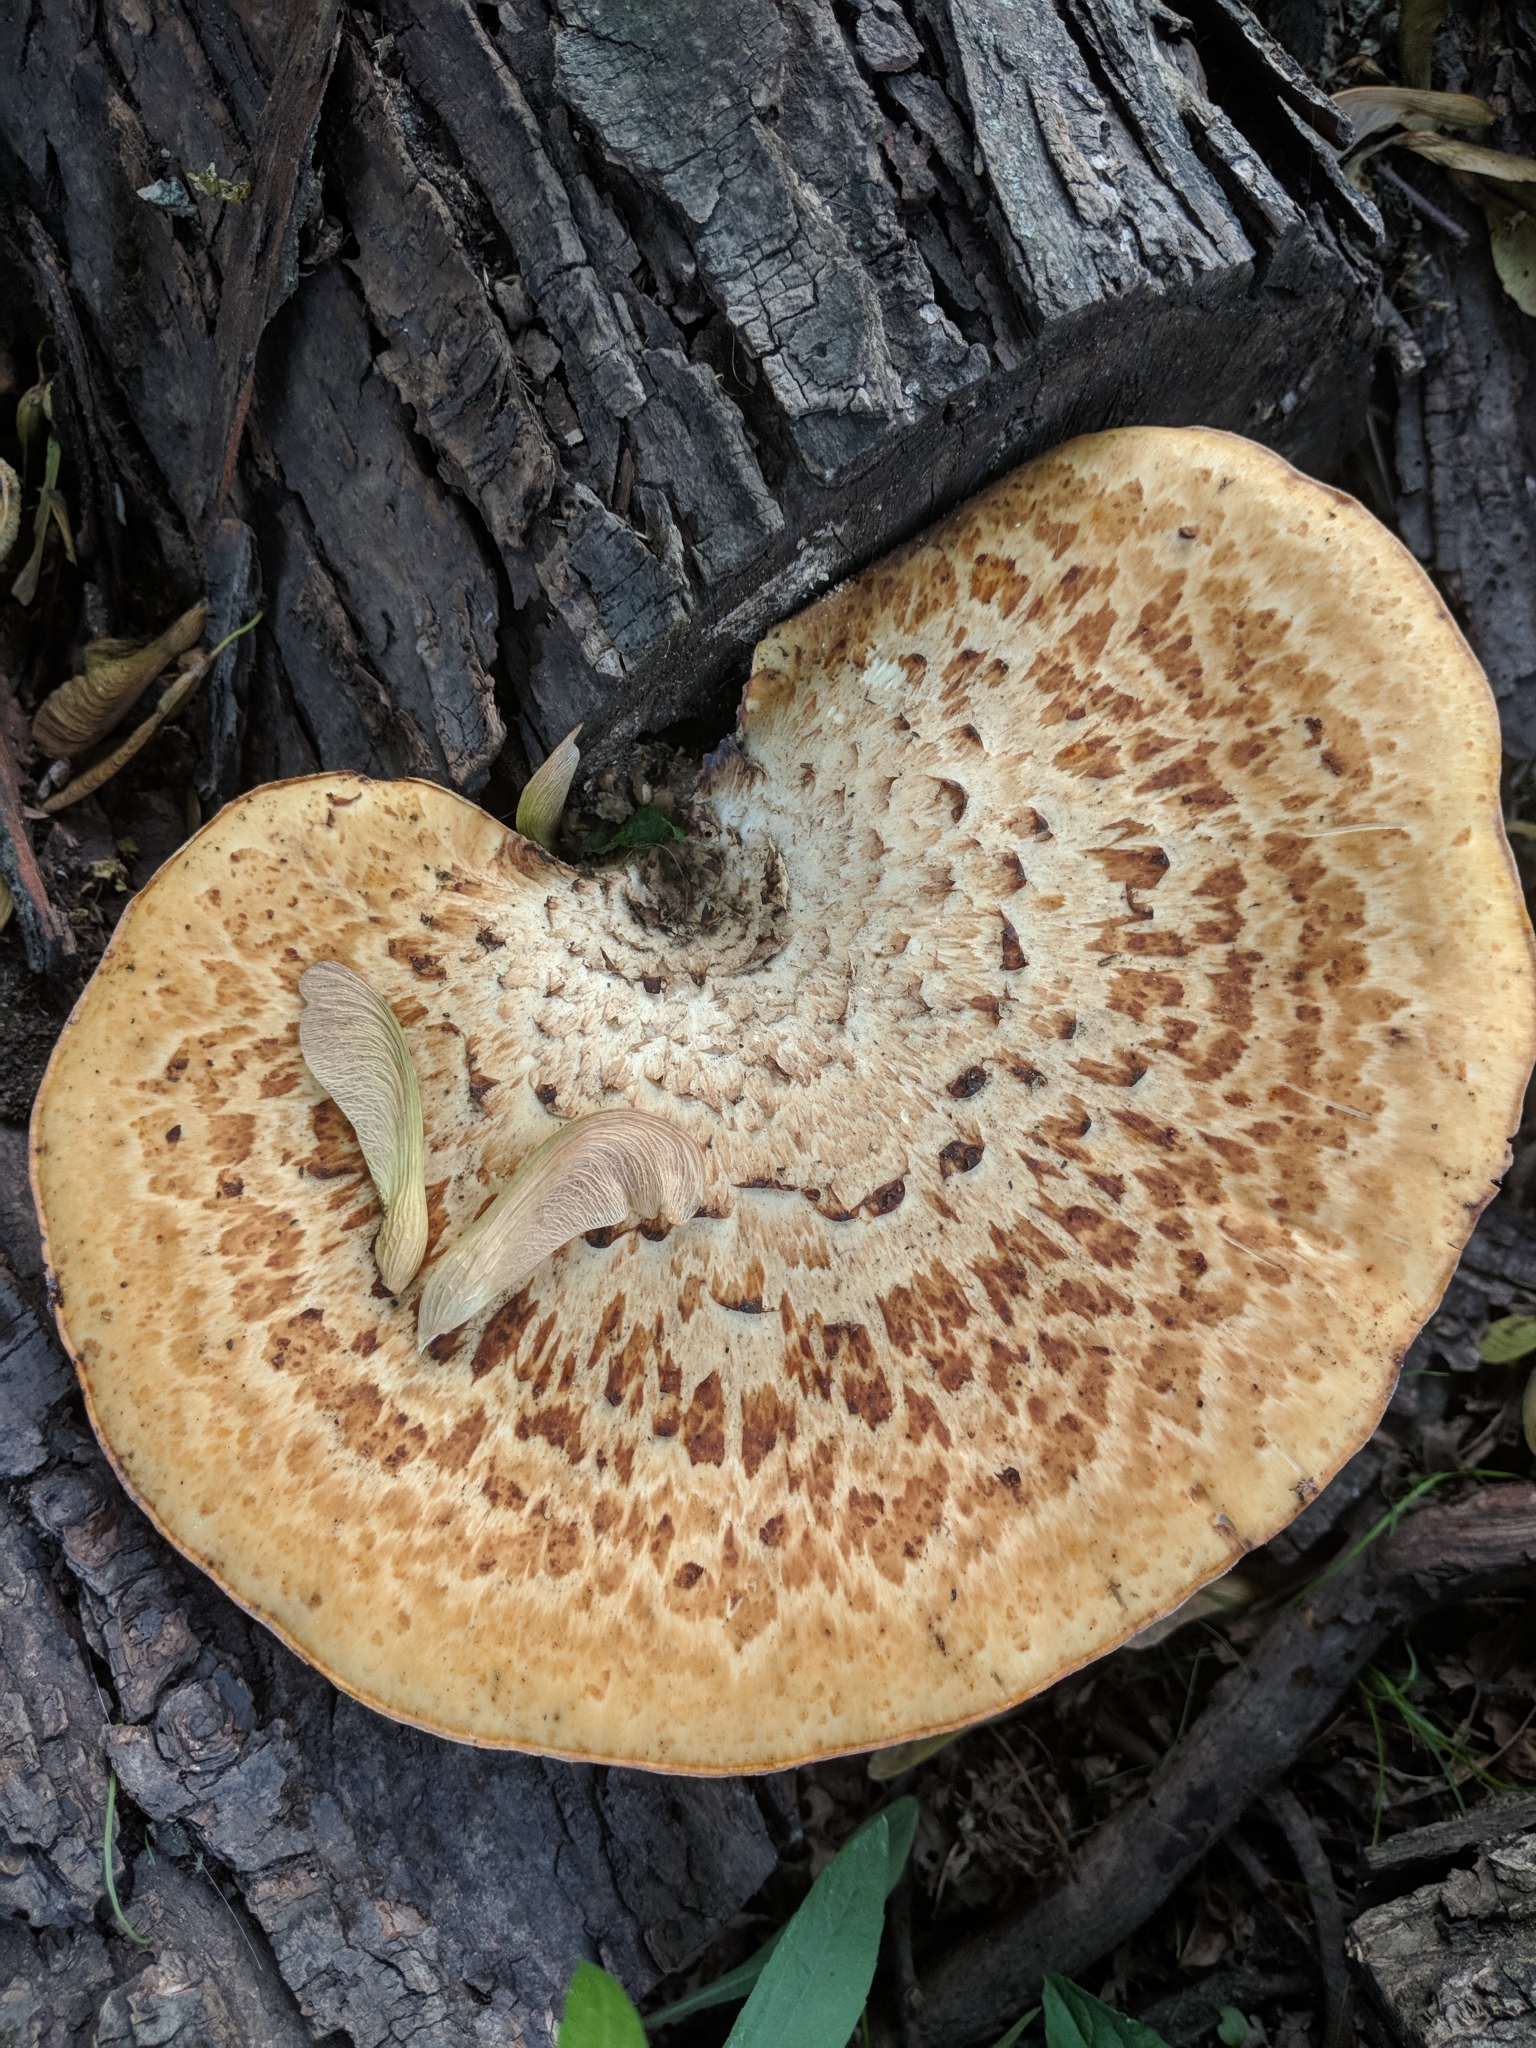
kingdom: Fungi
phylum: Basidiomycota
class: Agaricomycetes
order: Polyporales
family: Polyporaceae
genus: Cerioporus
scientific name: Cerioporus squamosus
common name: Dryad's saddle
